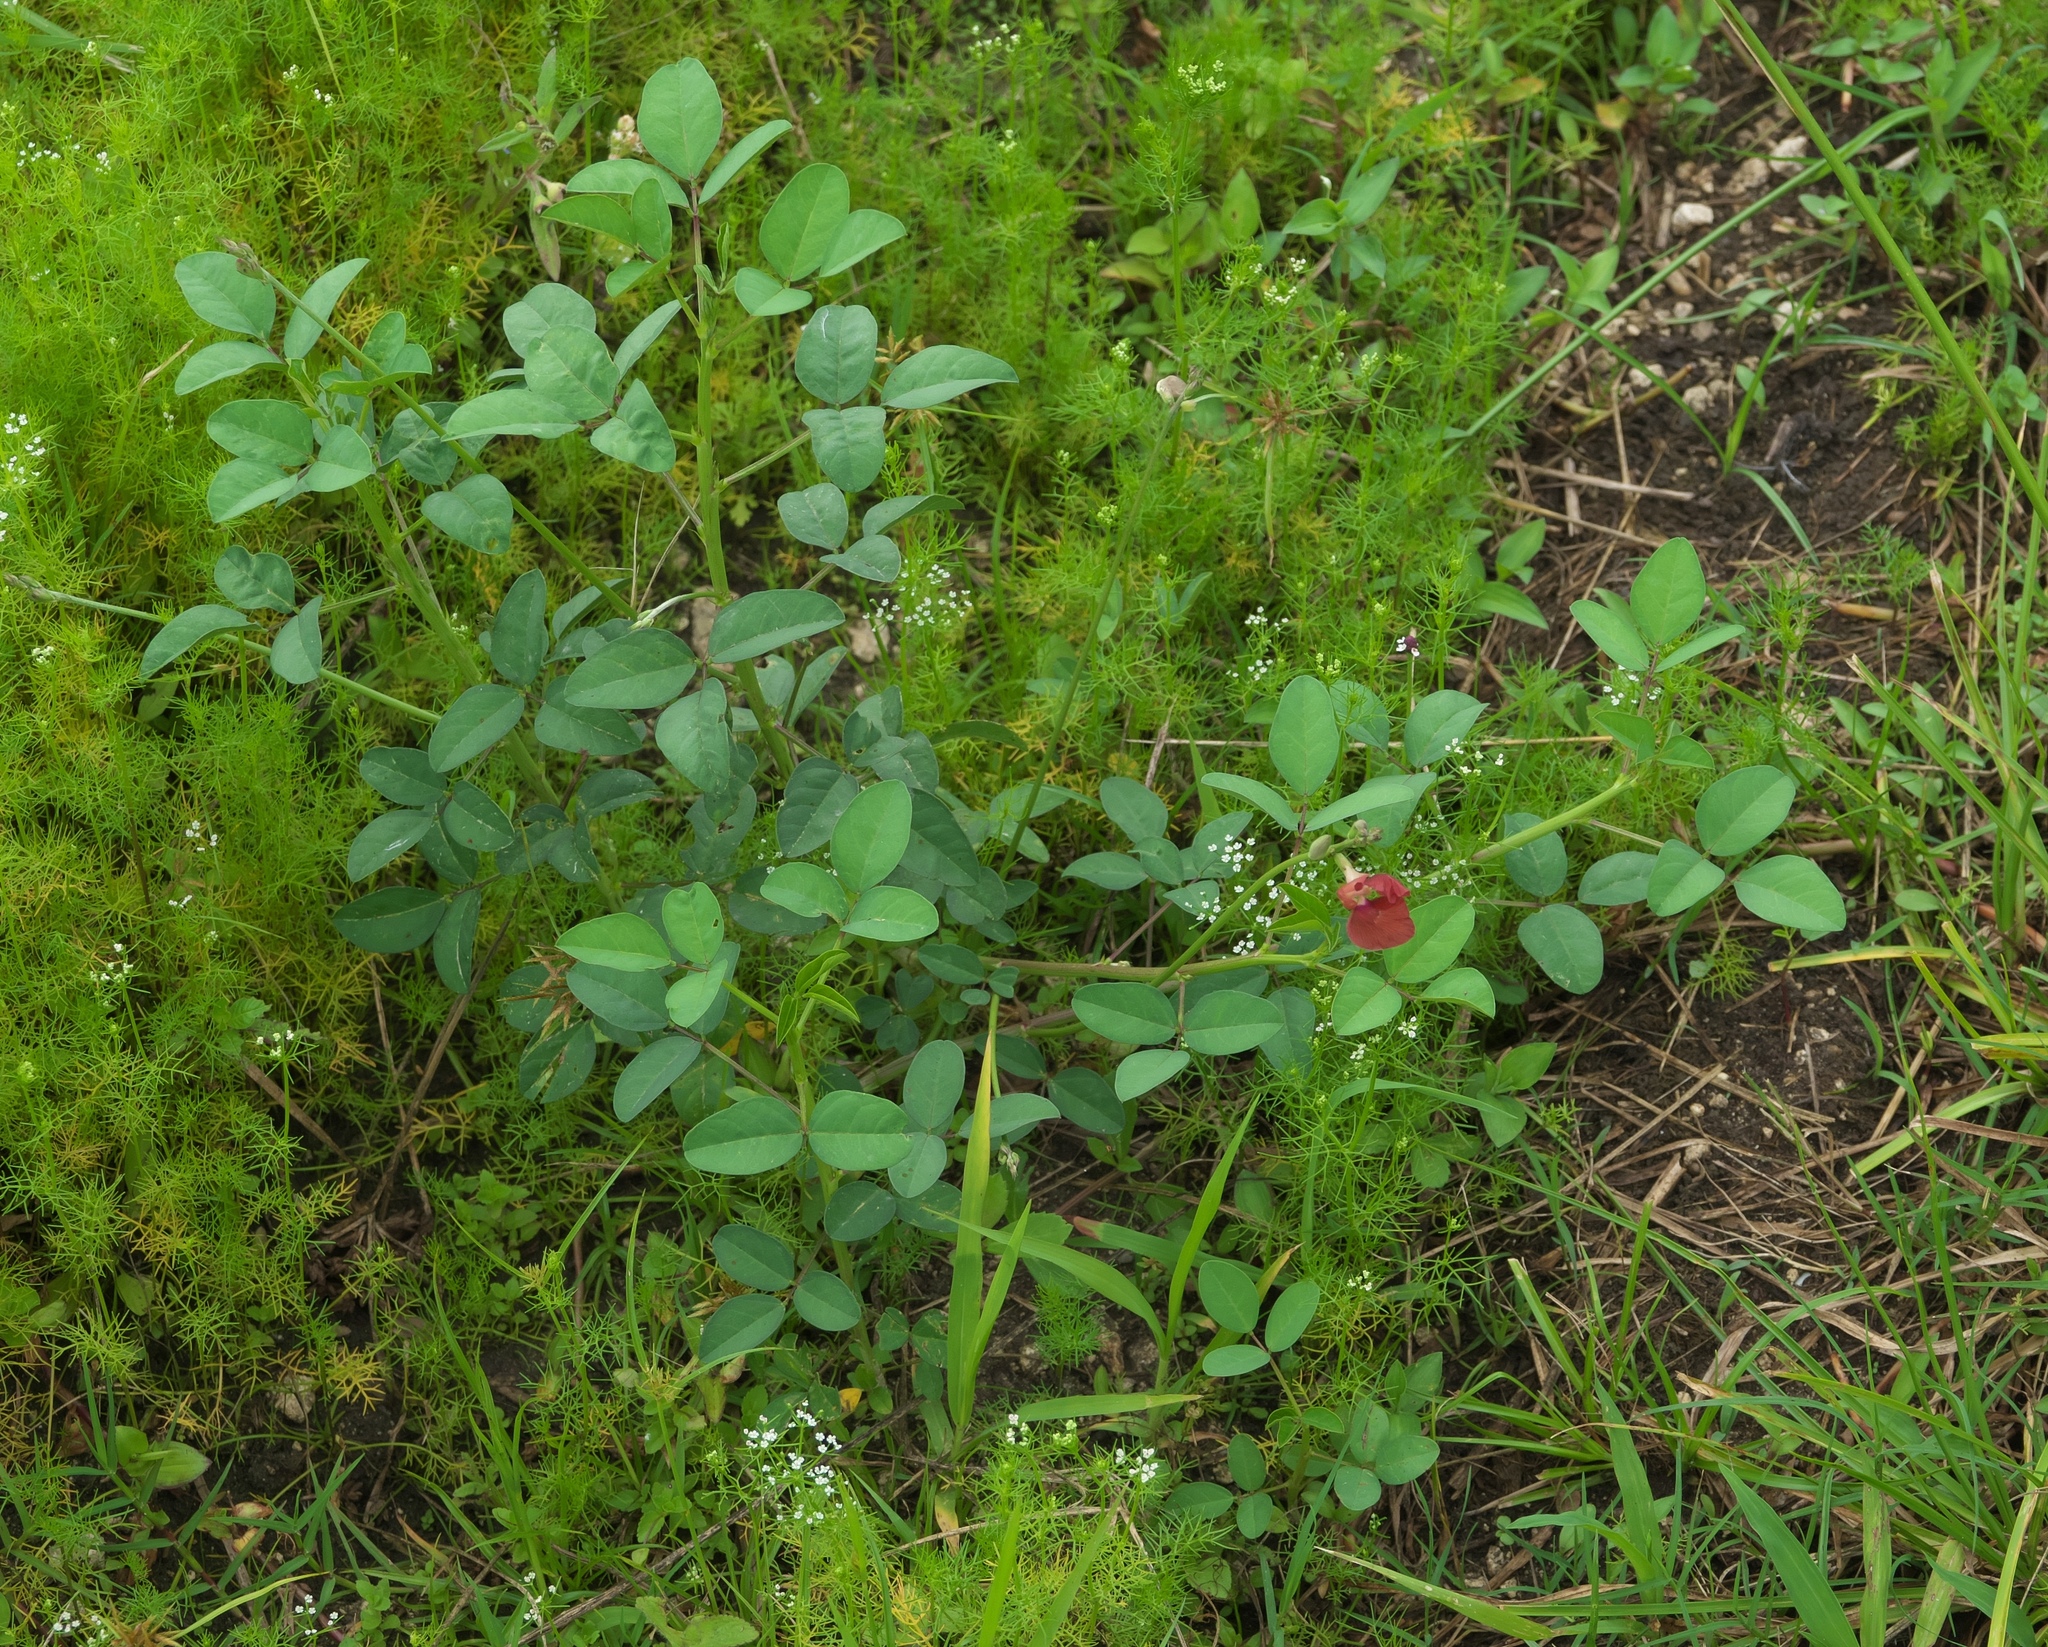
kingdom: Plantae
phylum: Tracheophyta
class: Magnoliopsida
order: Fabales
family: Fabaceae
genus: Macroptilium
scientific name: Macroptilium lathyroides
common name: Wild bushbean
